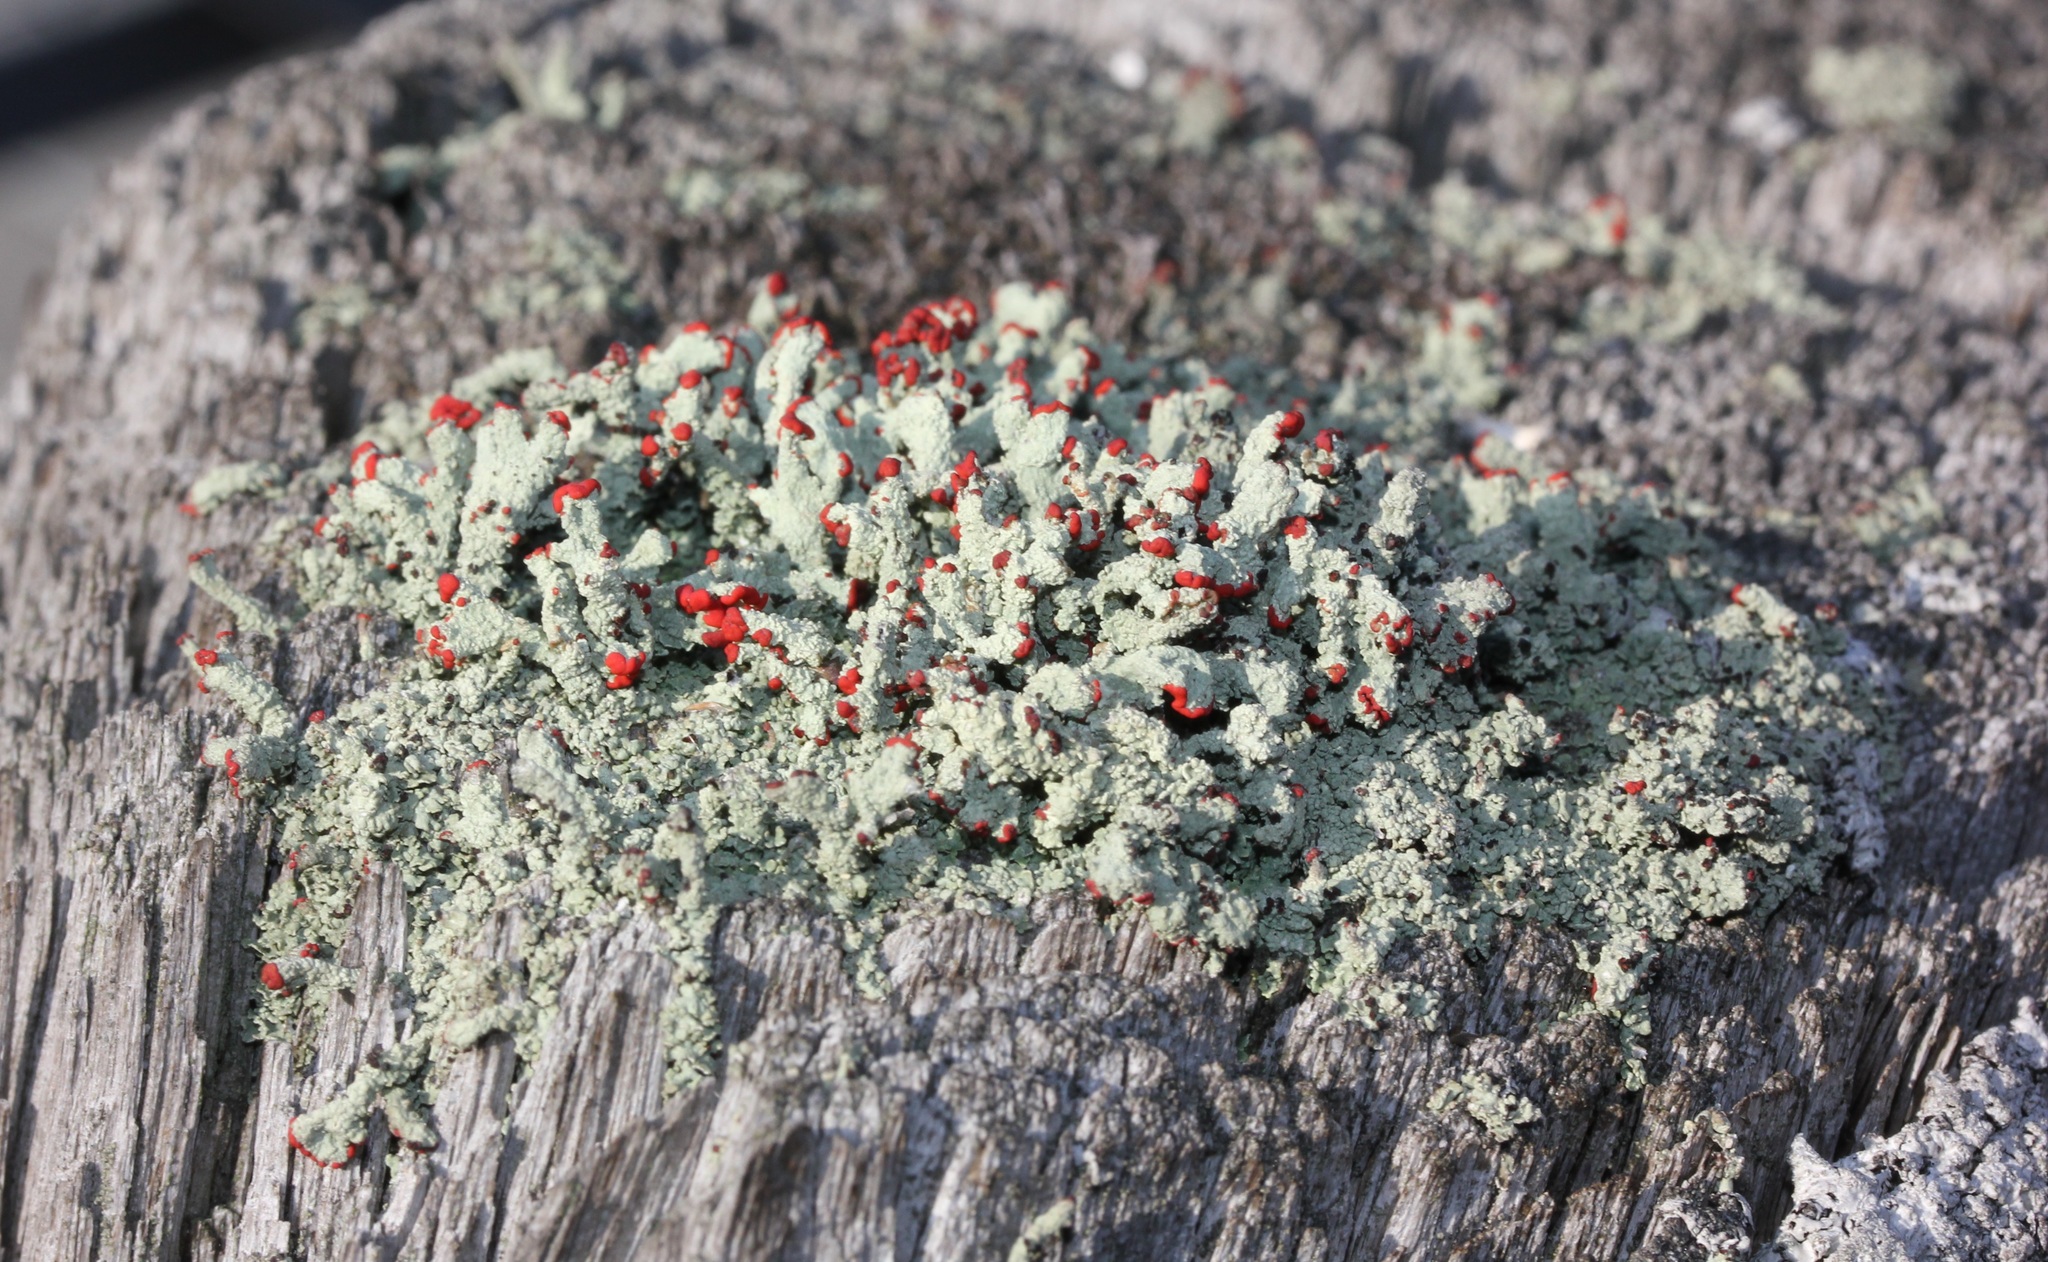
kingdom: Fungi
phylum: Ascomycota
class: Lecanoromycetes
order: Lecanorales
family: Cladoniaceae
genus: Cladonia
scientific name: Cladonia cristatella
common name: British soldier lichen
